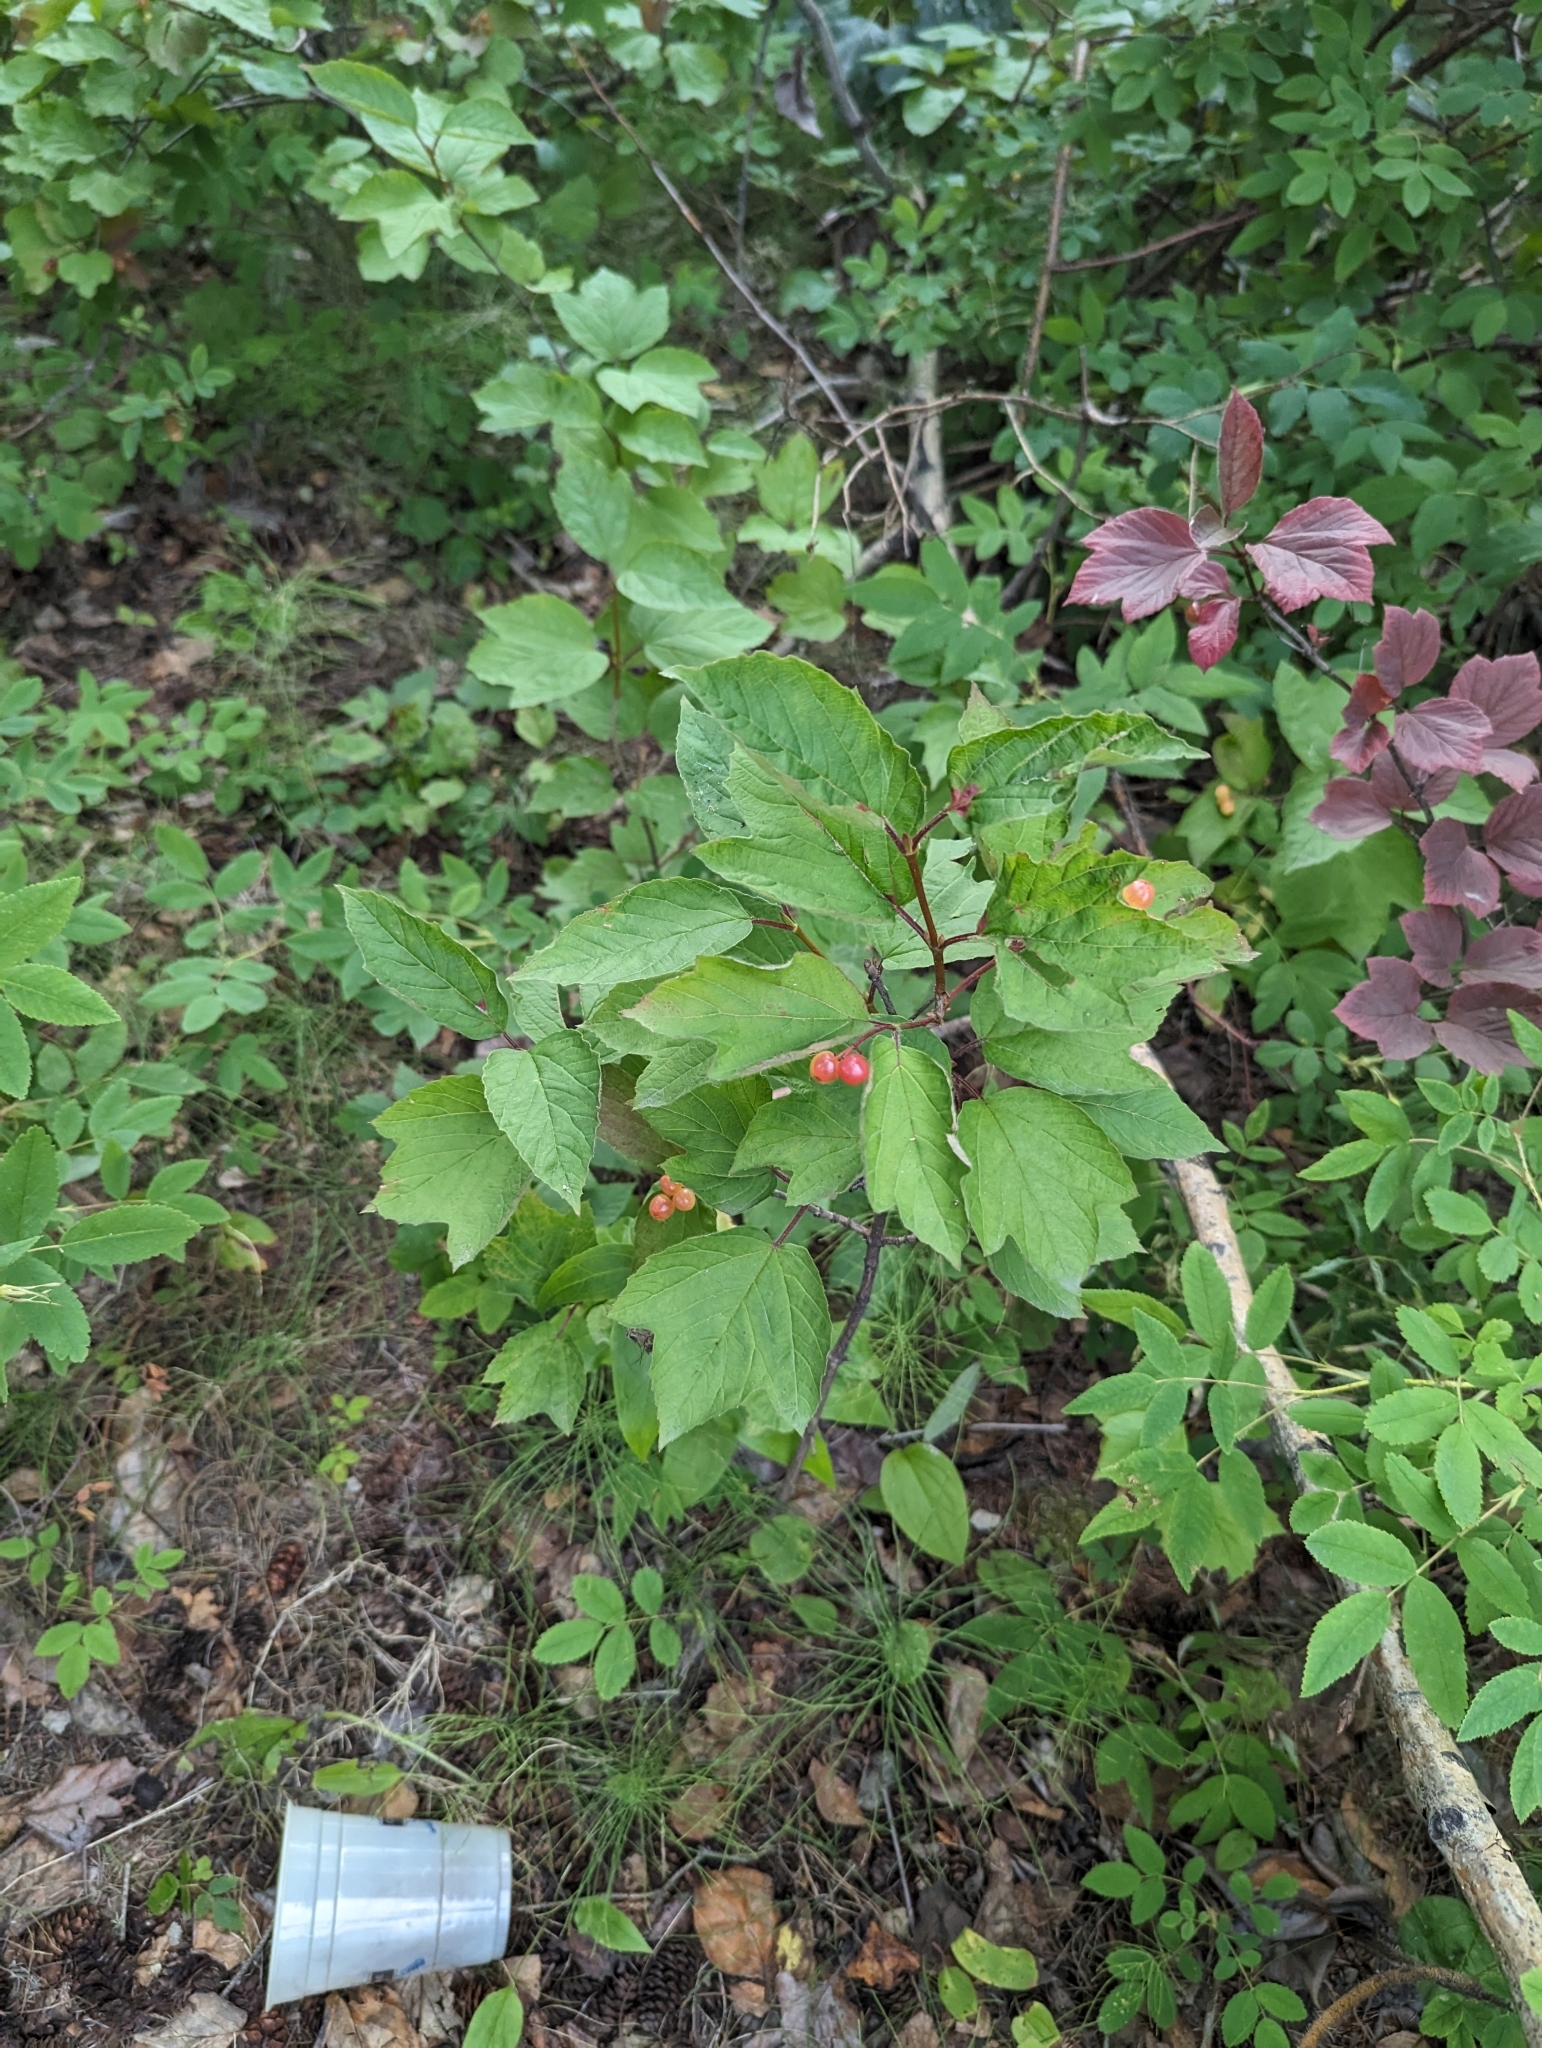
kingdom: Plantae
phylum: Tracheophyta
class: Magnoliopsida
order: Dipsacales
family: Viburnaceae
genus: Viburnum
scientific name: Viburnum edule
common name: Mooseberry
